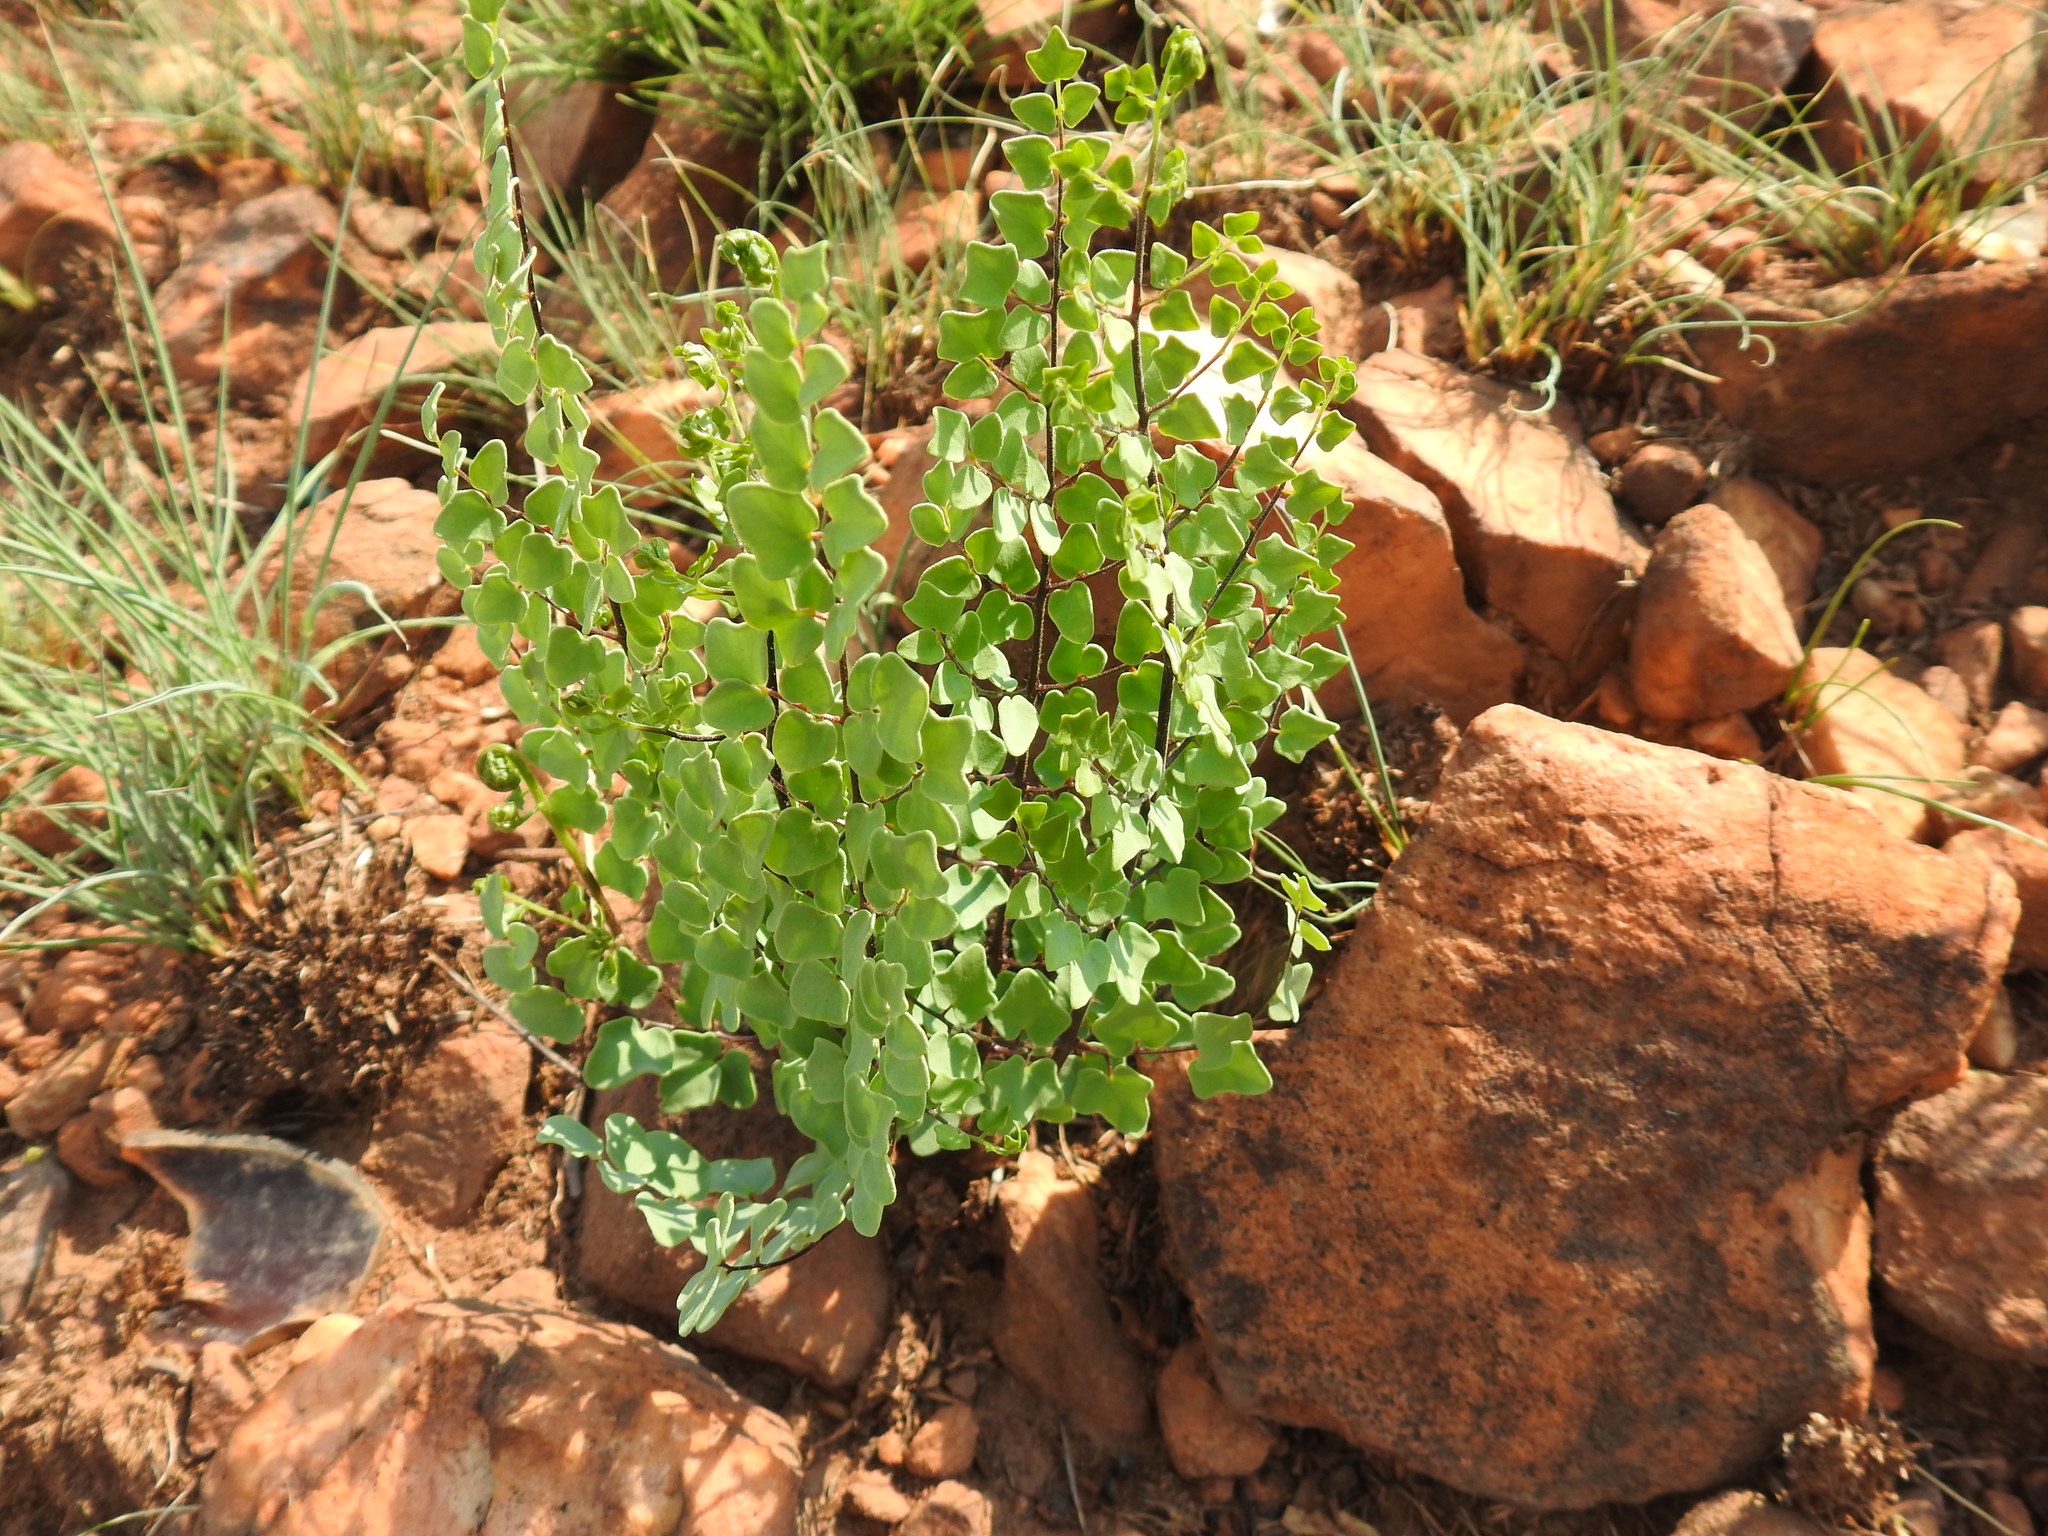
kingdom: Plantae
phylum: Tracheophyta
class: Polypodiopsida
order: Polypodiales
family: Pteridaceae
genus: Pellaea
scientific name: Pellaea calomelanos
